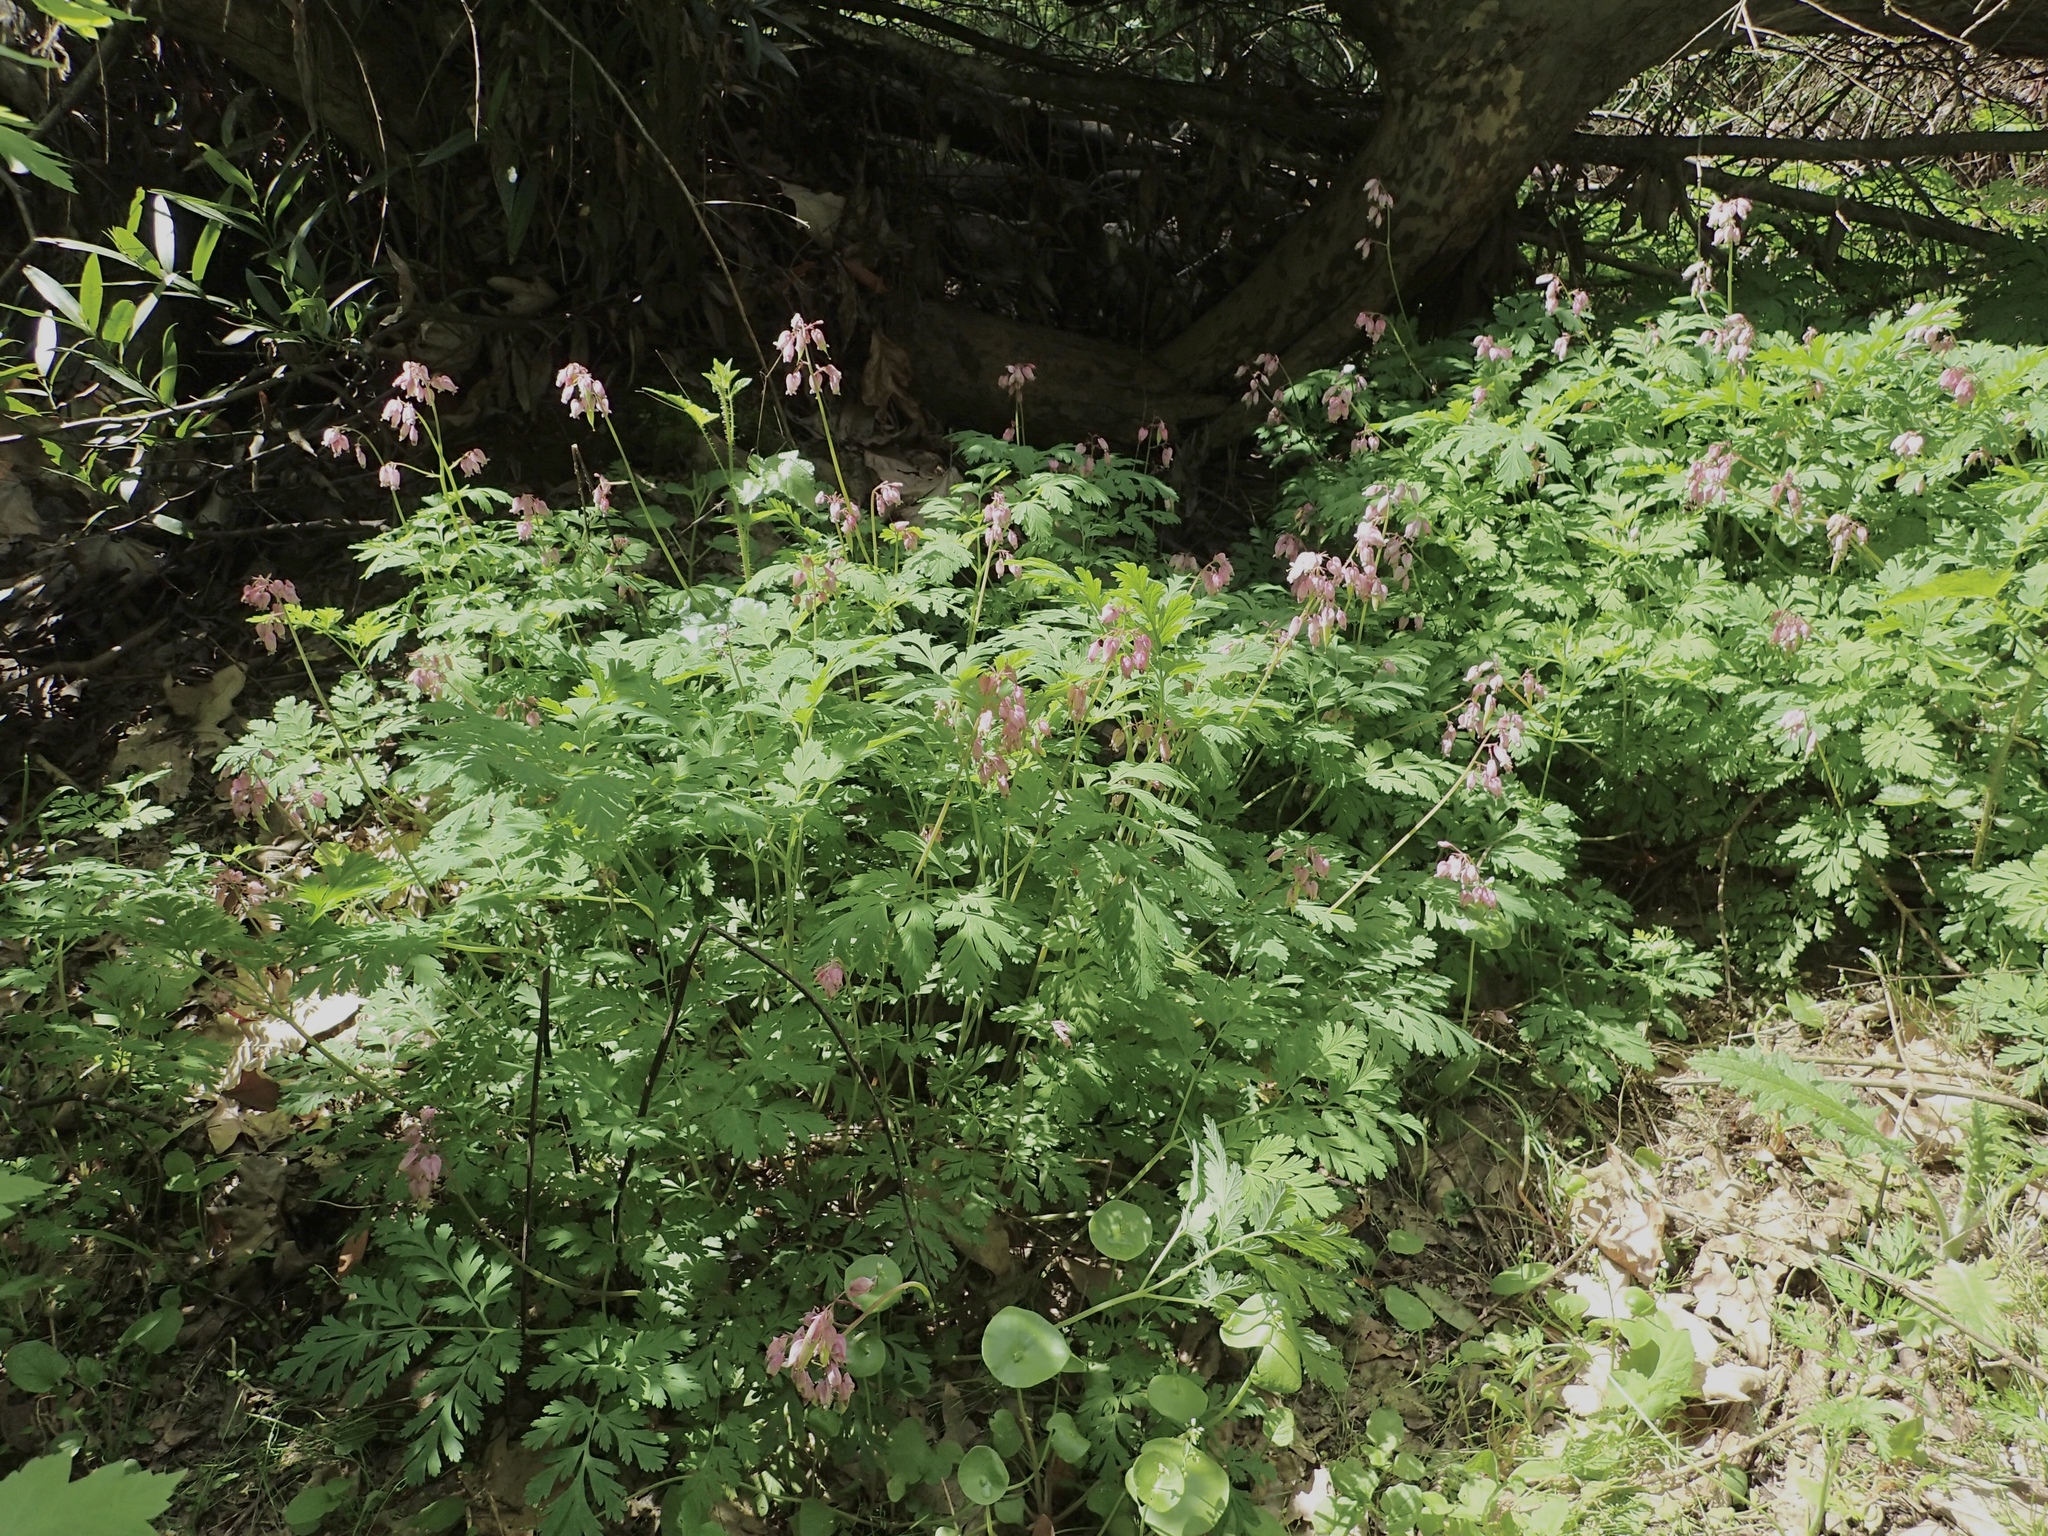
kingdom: Plantae
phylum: Tracheophyta
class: Magnoliopsida
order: Ranunculales
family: Papaveraceae
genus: Dicentra
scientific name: Dicentra formosa
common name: Bleeding-heart
